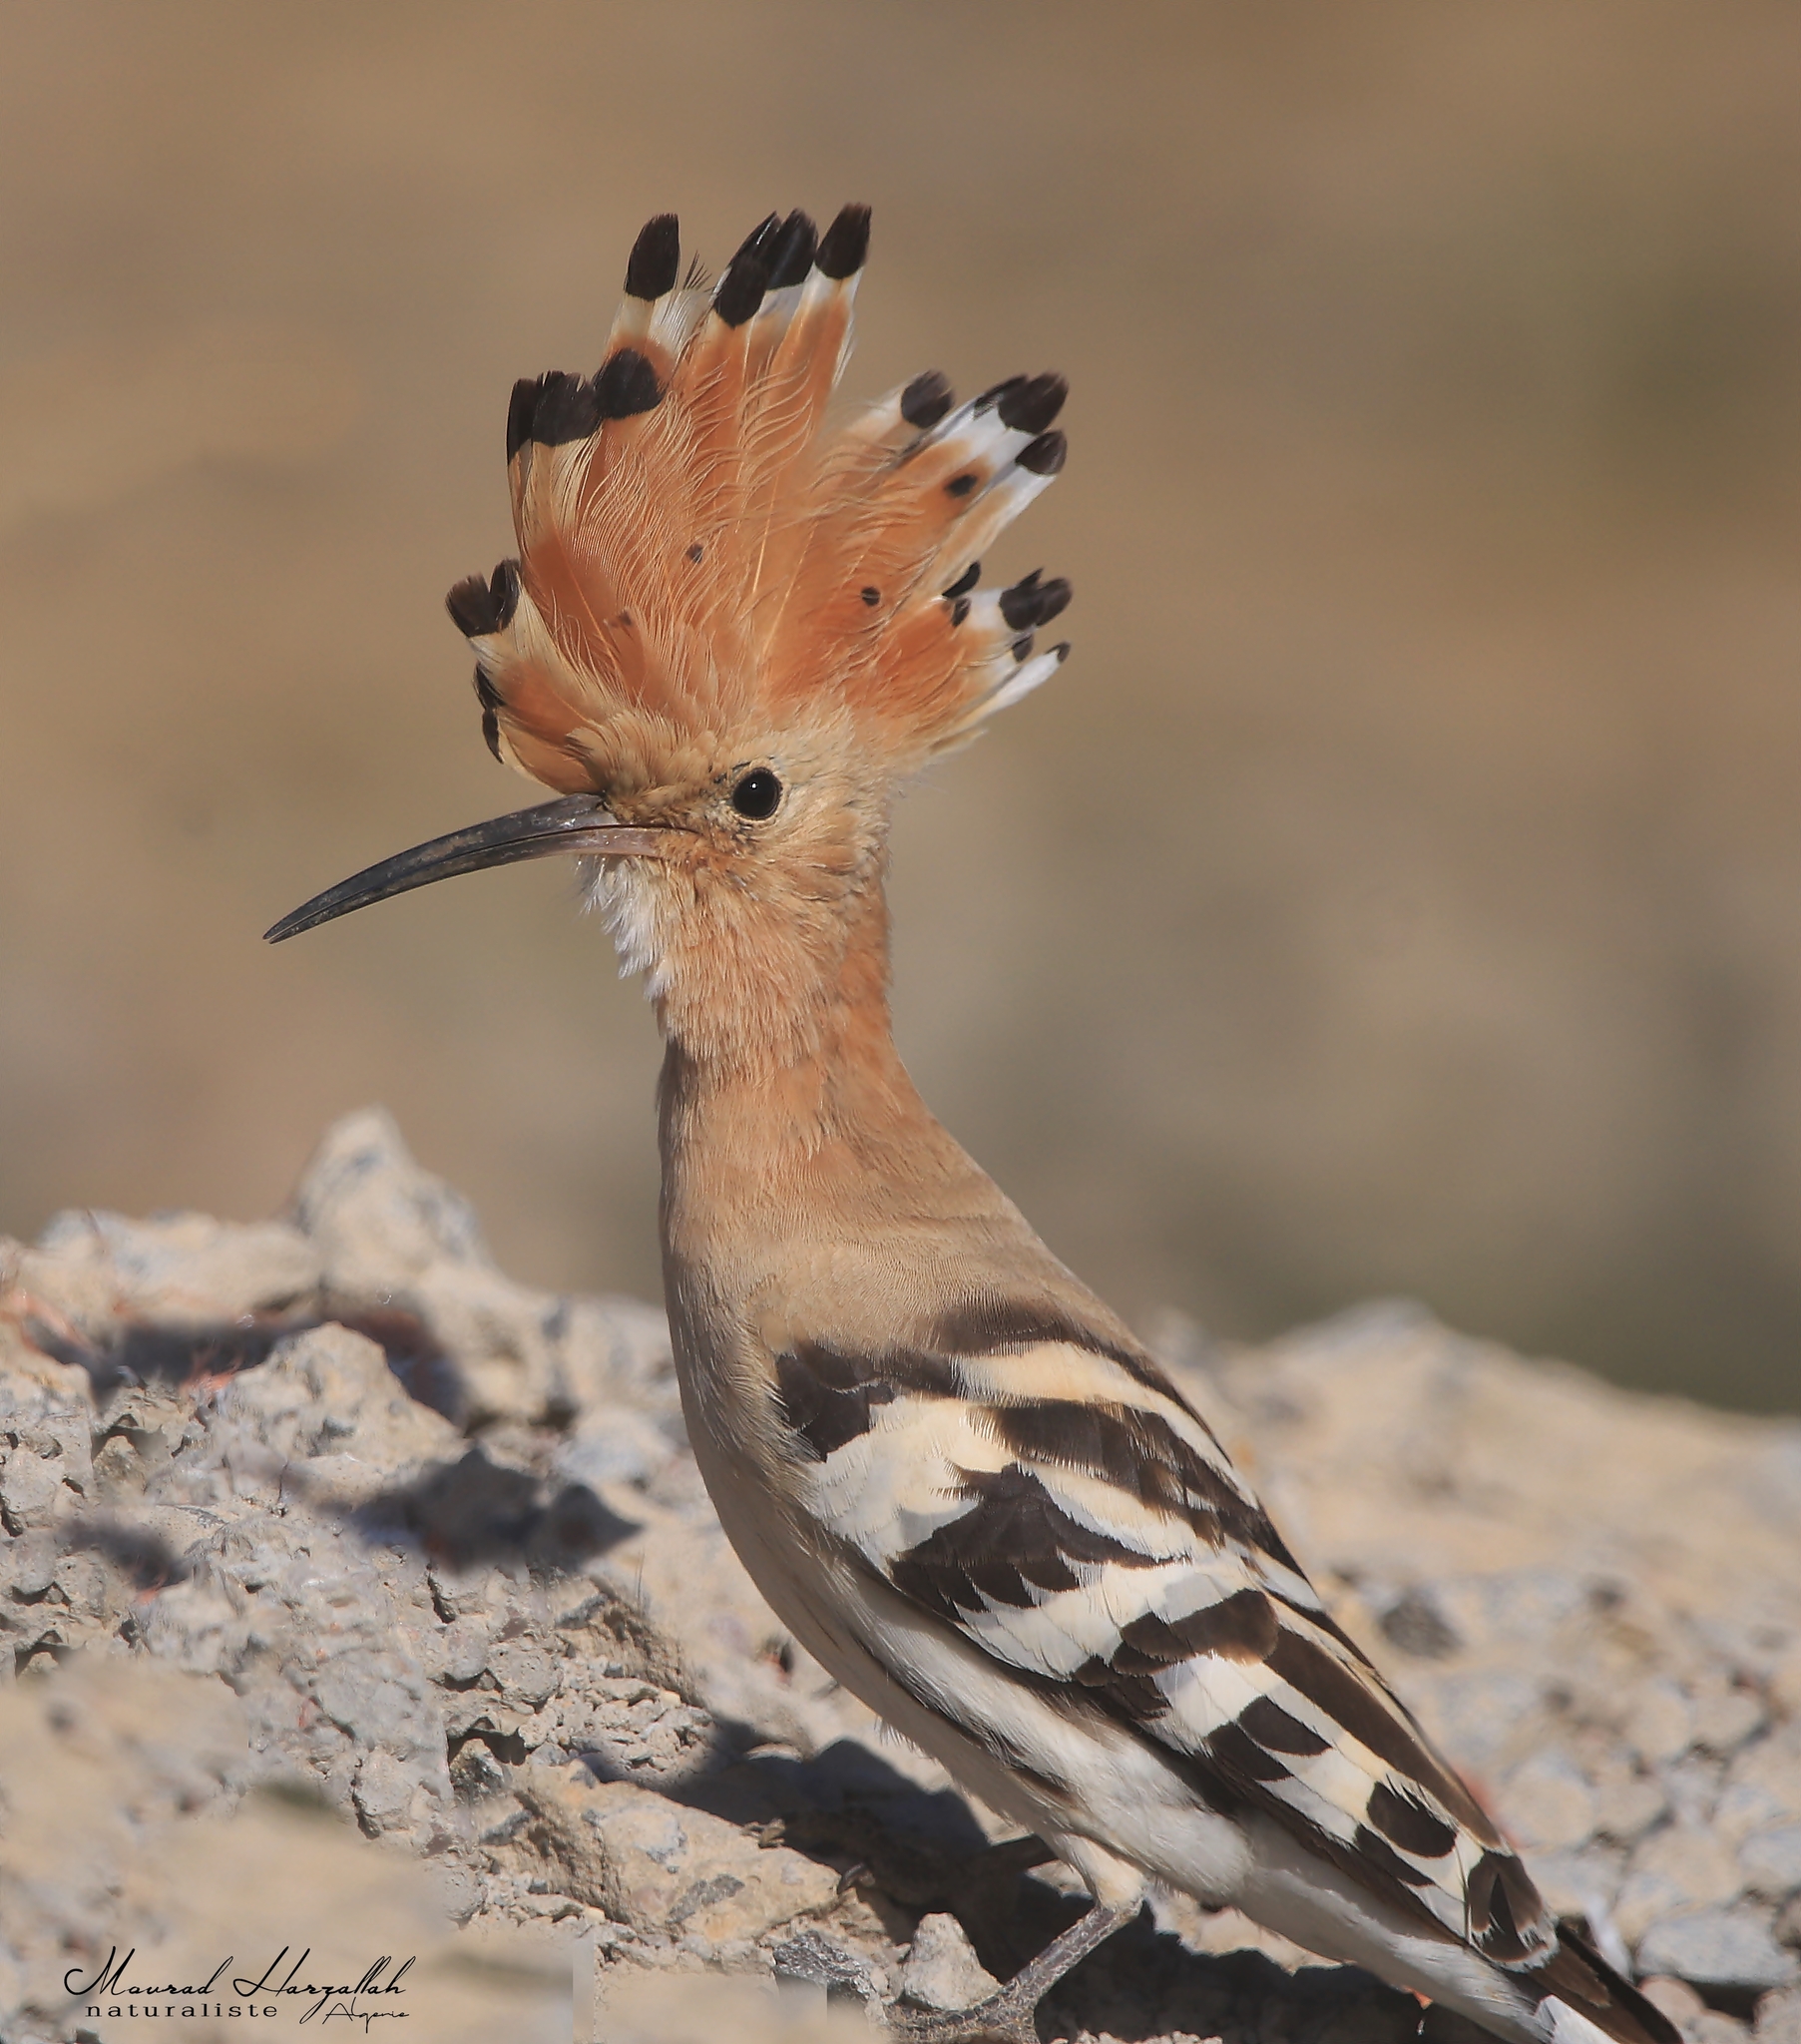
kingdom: Animalia
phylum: Chordata
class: Aves
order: Bucerotiformes
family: Upupidae
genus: Upupa
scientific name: Upupa epops
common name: Eurasian hoopoe
